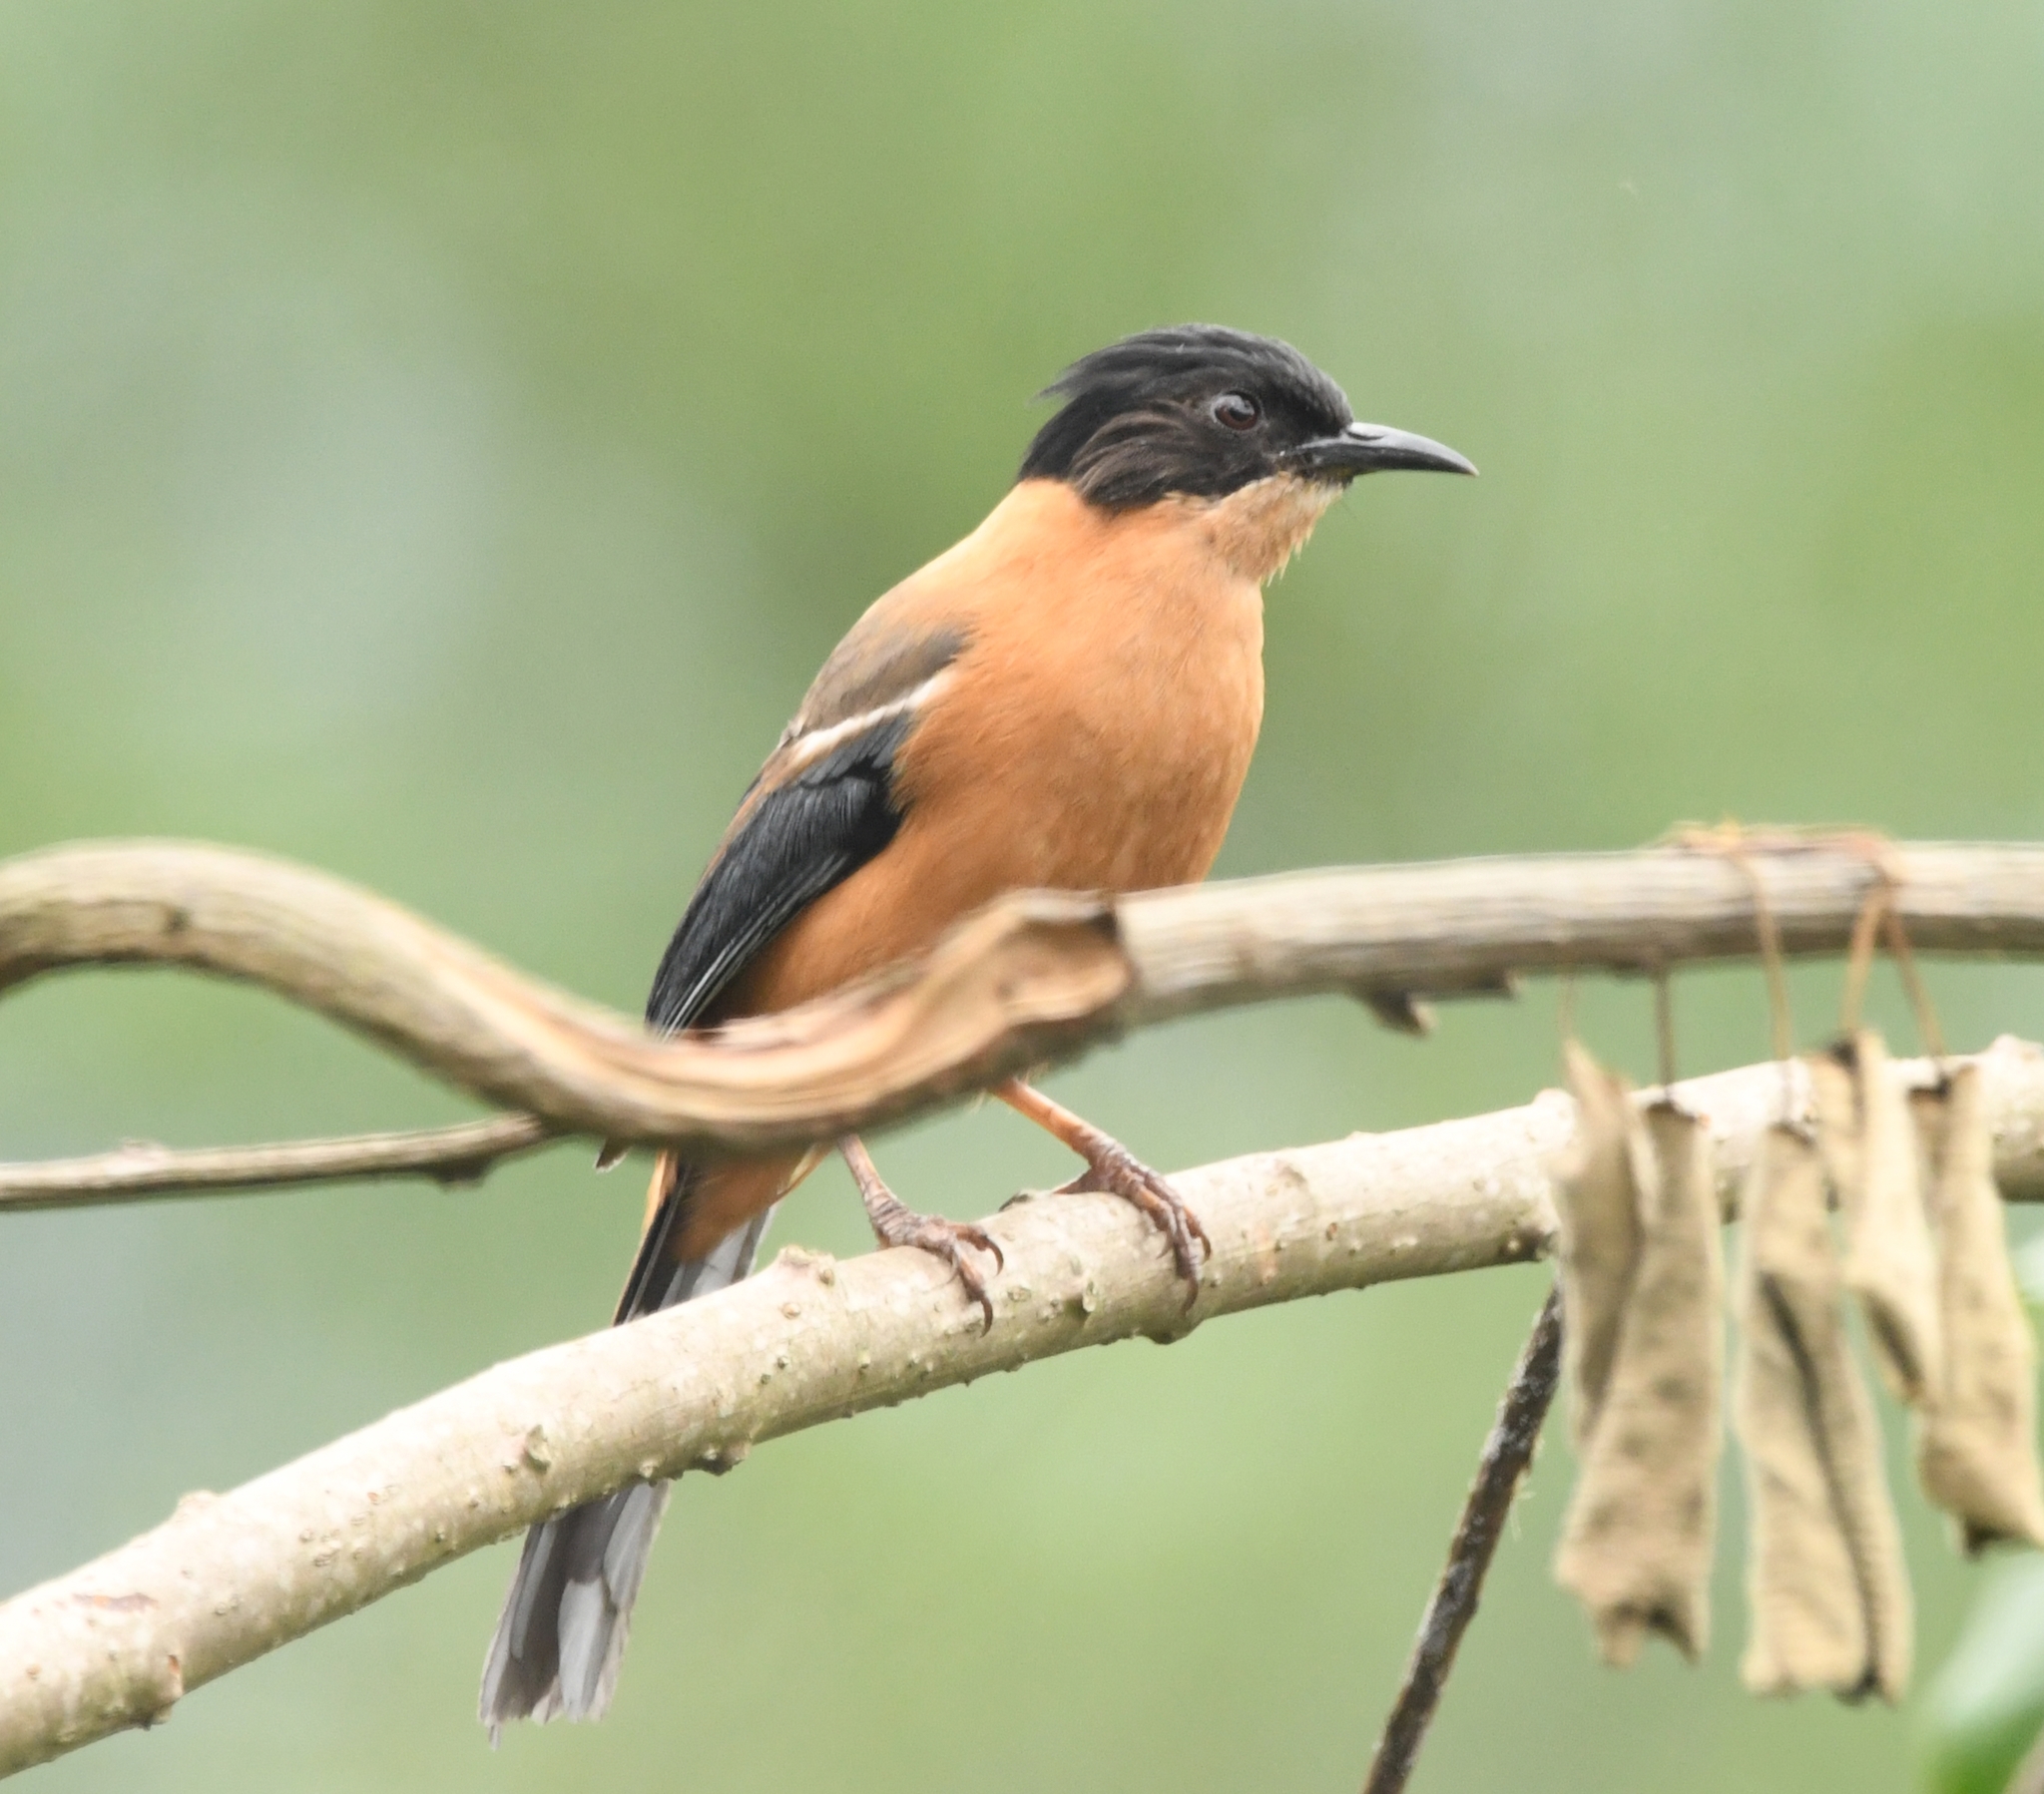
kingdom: Animalia
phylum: Chordata
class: Aves
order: Passeriformes
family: Leiothrichidae
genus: Heterophasia
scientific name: Heterophasia capistrata
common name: Rufous sibia
